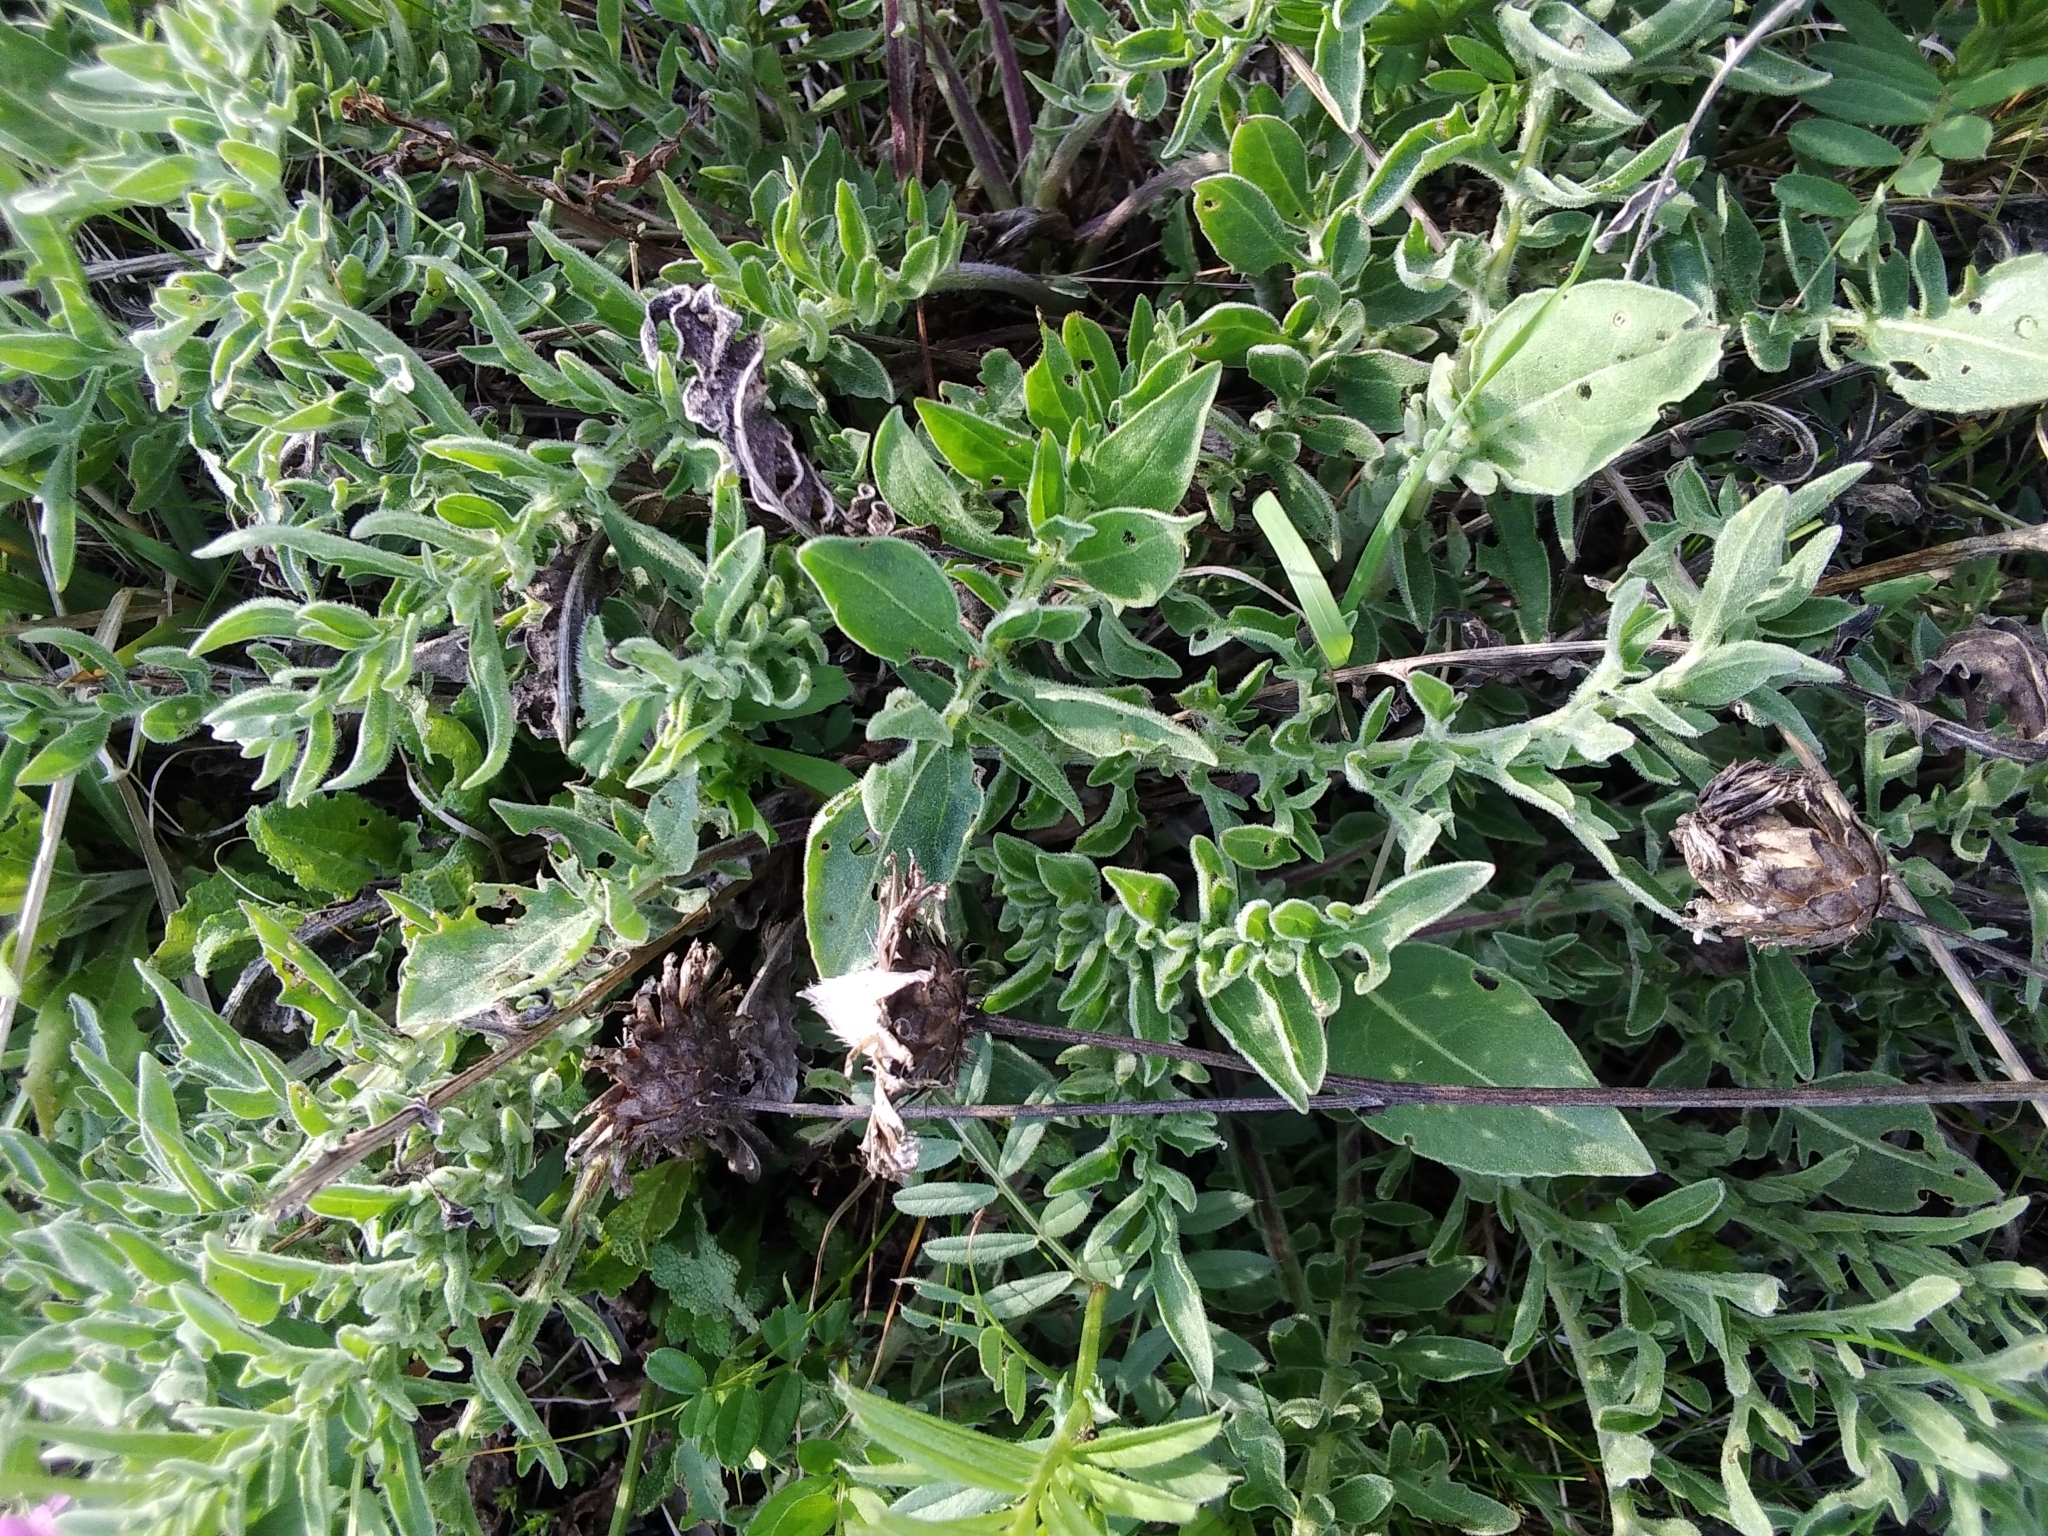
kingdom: Plantae
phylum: Tracheophyta
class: Magnoliopsida
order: Asterales
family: Asteraceae
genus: Centaurea
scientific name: Centaurea sadleriana
